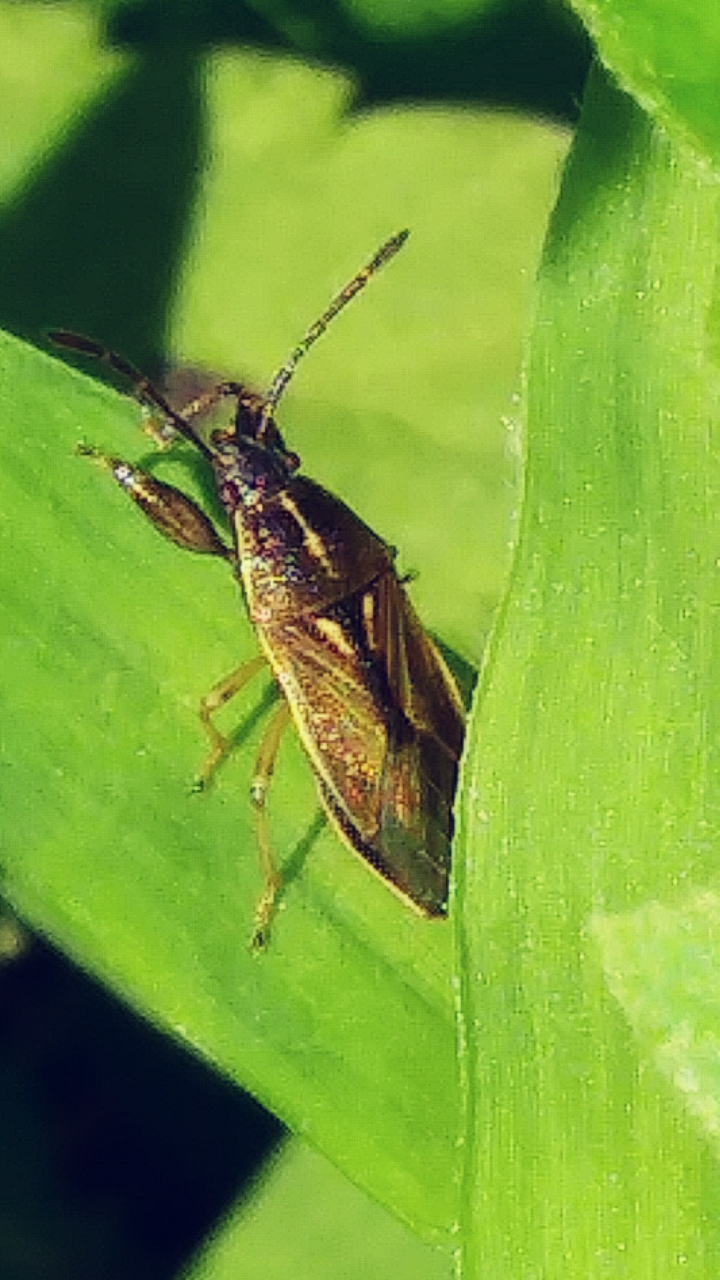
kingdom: Animalia
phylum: Arthropoda
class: Insecta
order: Hemiptera
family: Pachygronthidae
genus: Oedancala
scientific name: Oedancala dorsalis
